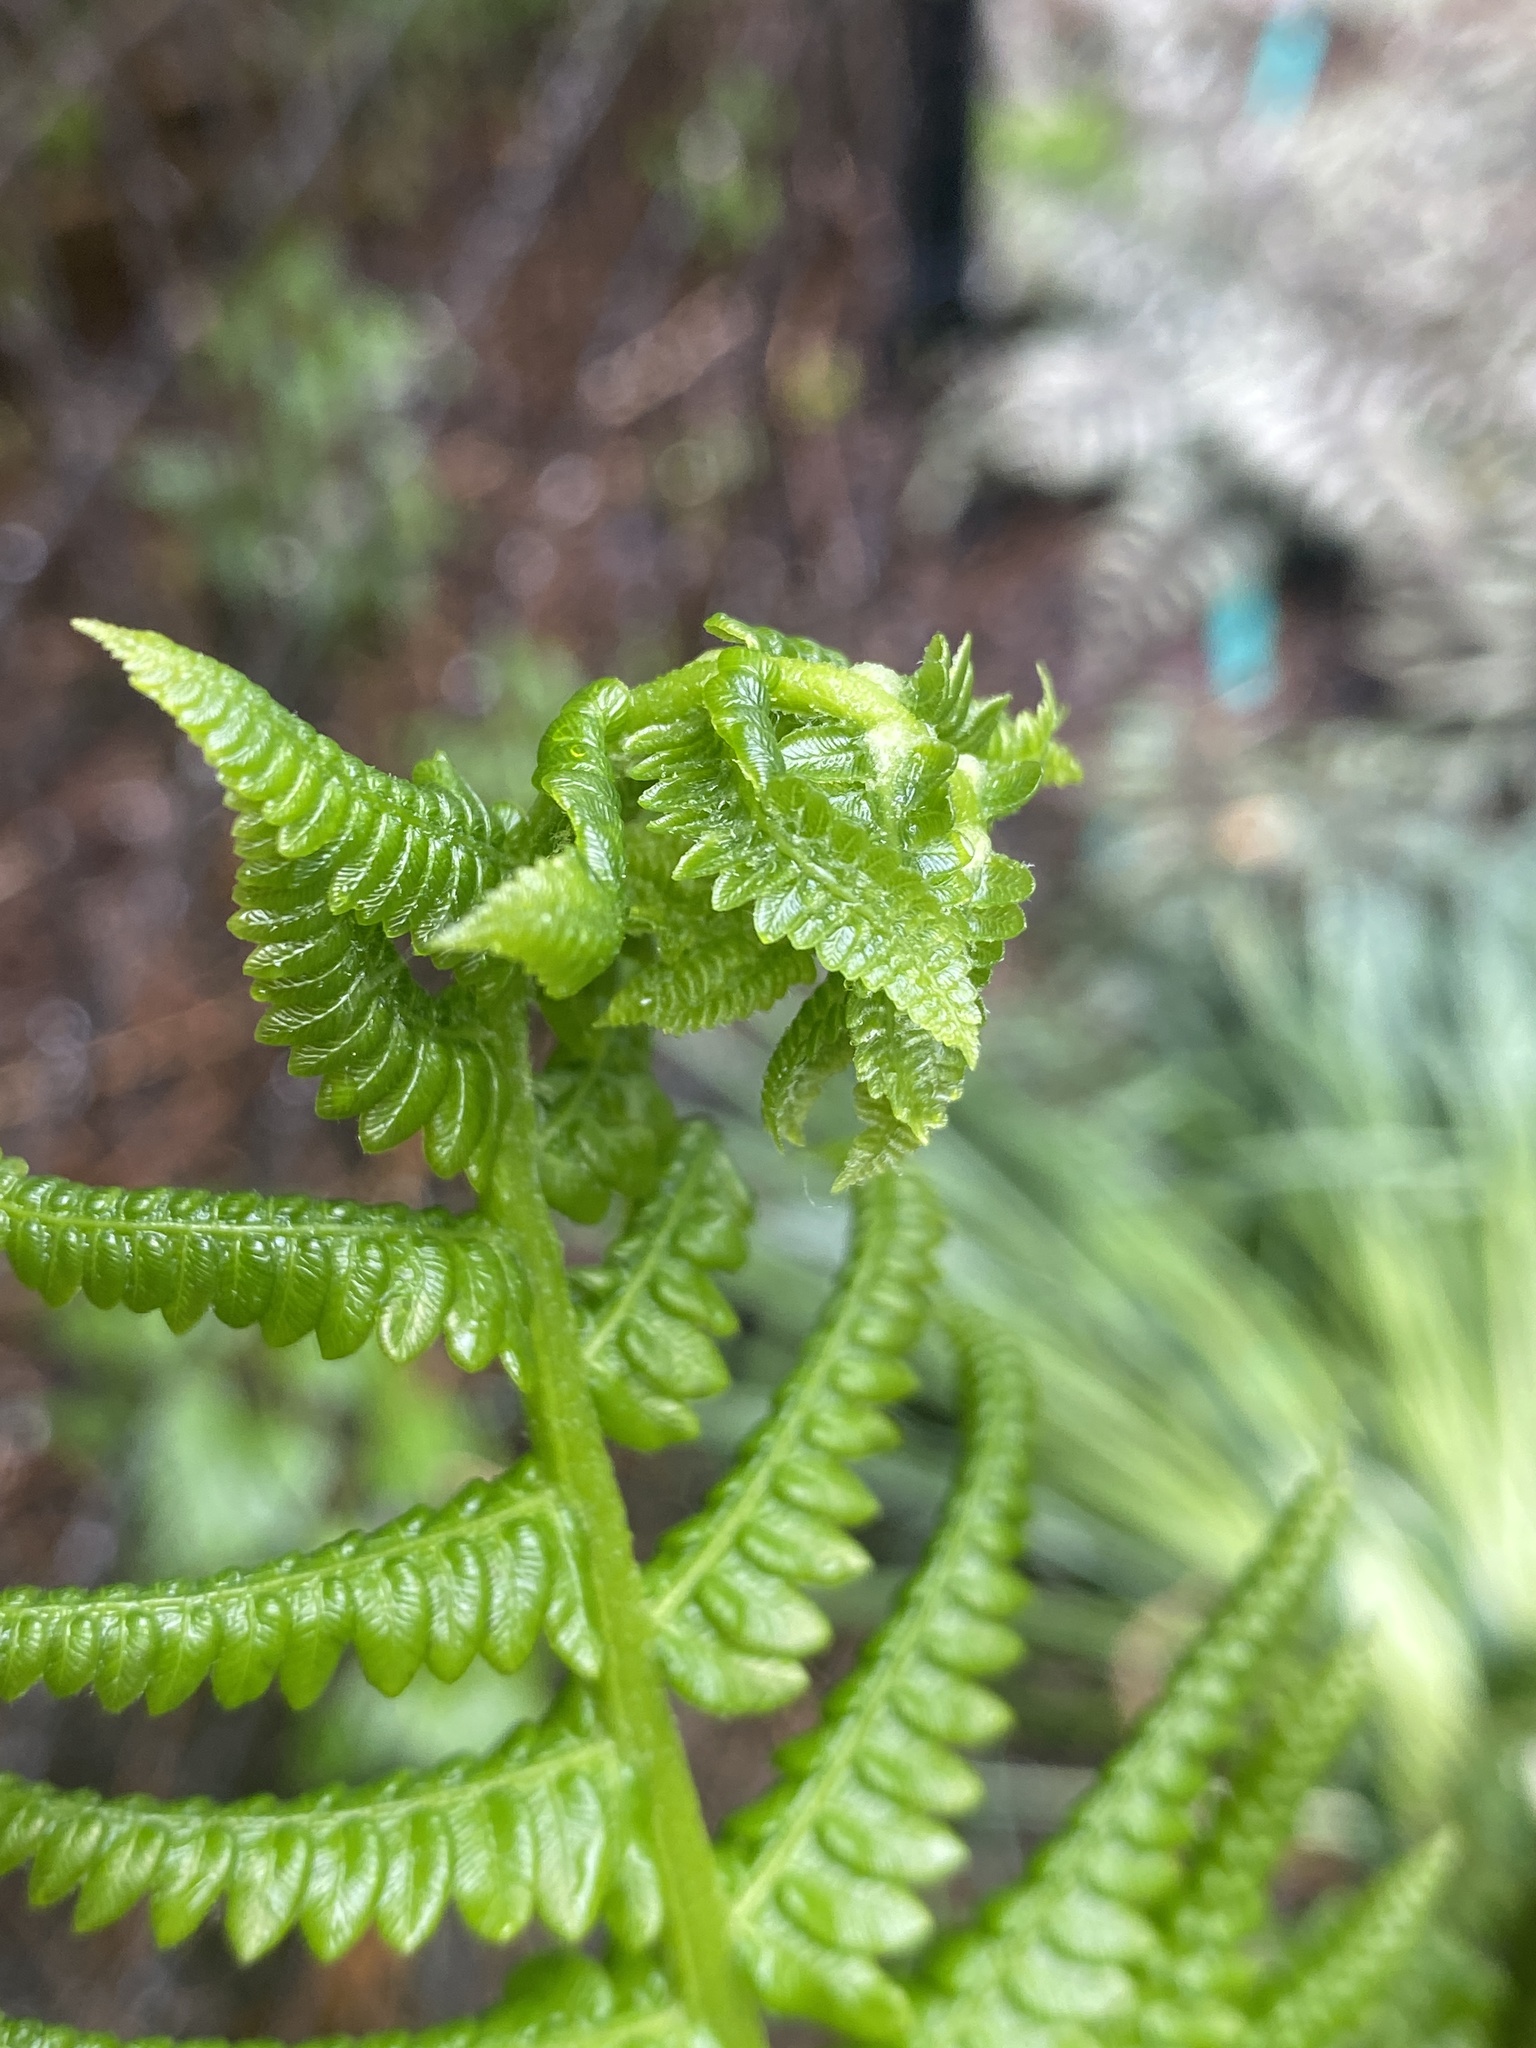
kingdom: Plantae
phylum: Tracheophyta
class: Polypodiopsida
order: Osmundales
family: Osmundaceae
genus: Osmundastrum
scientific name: Osmundastrum cinnamomeum
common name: Cinnamon fern
